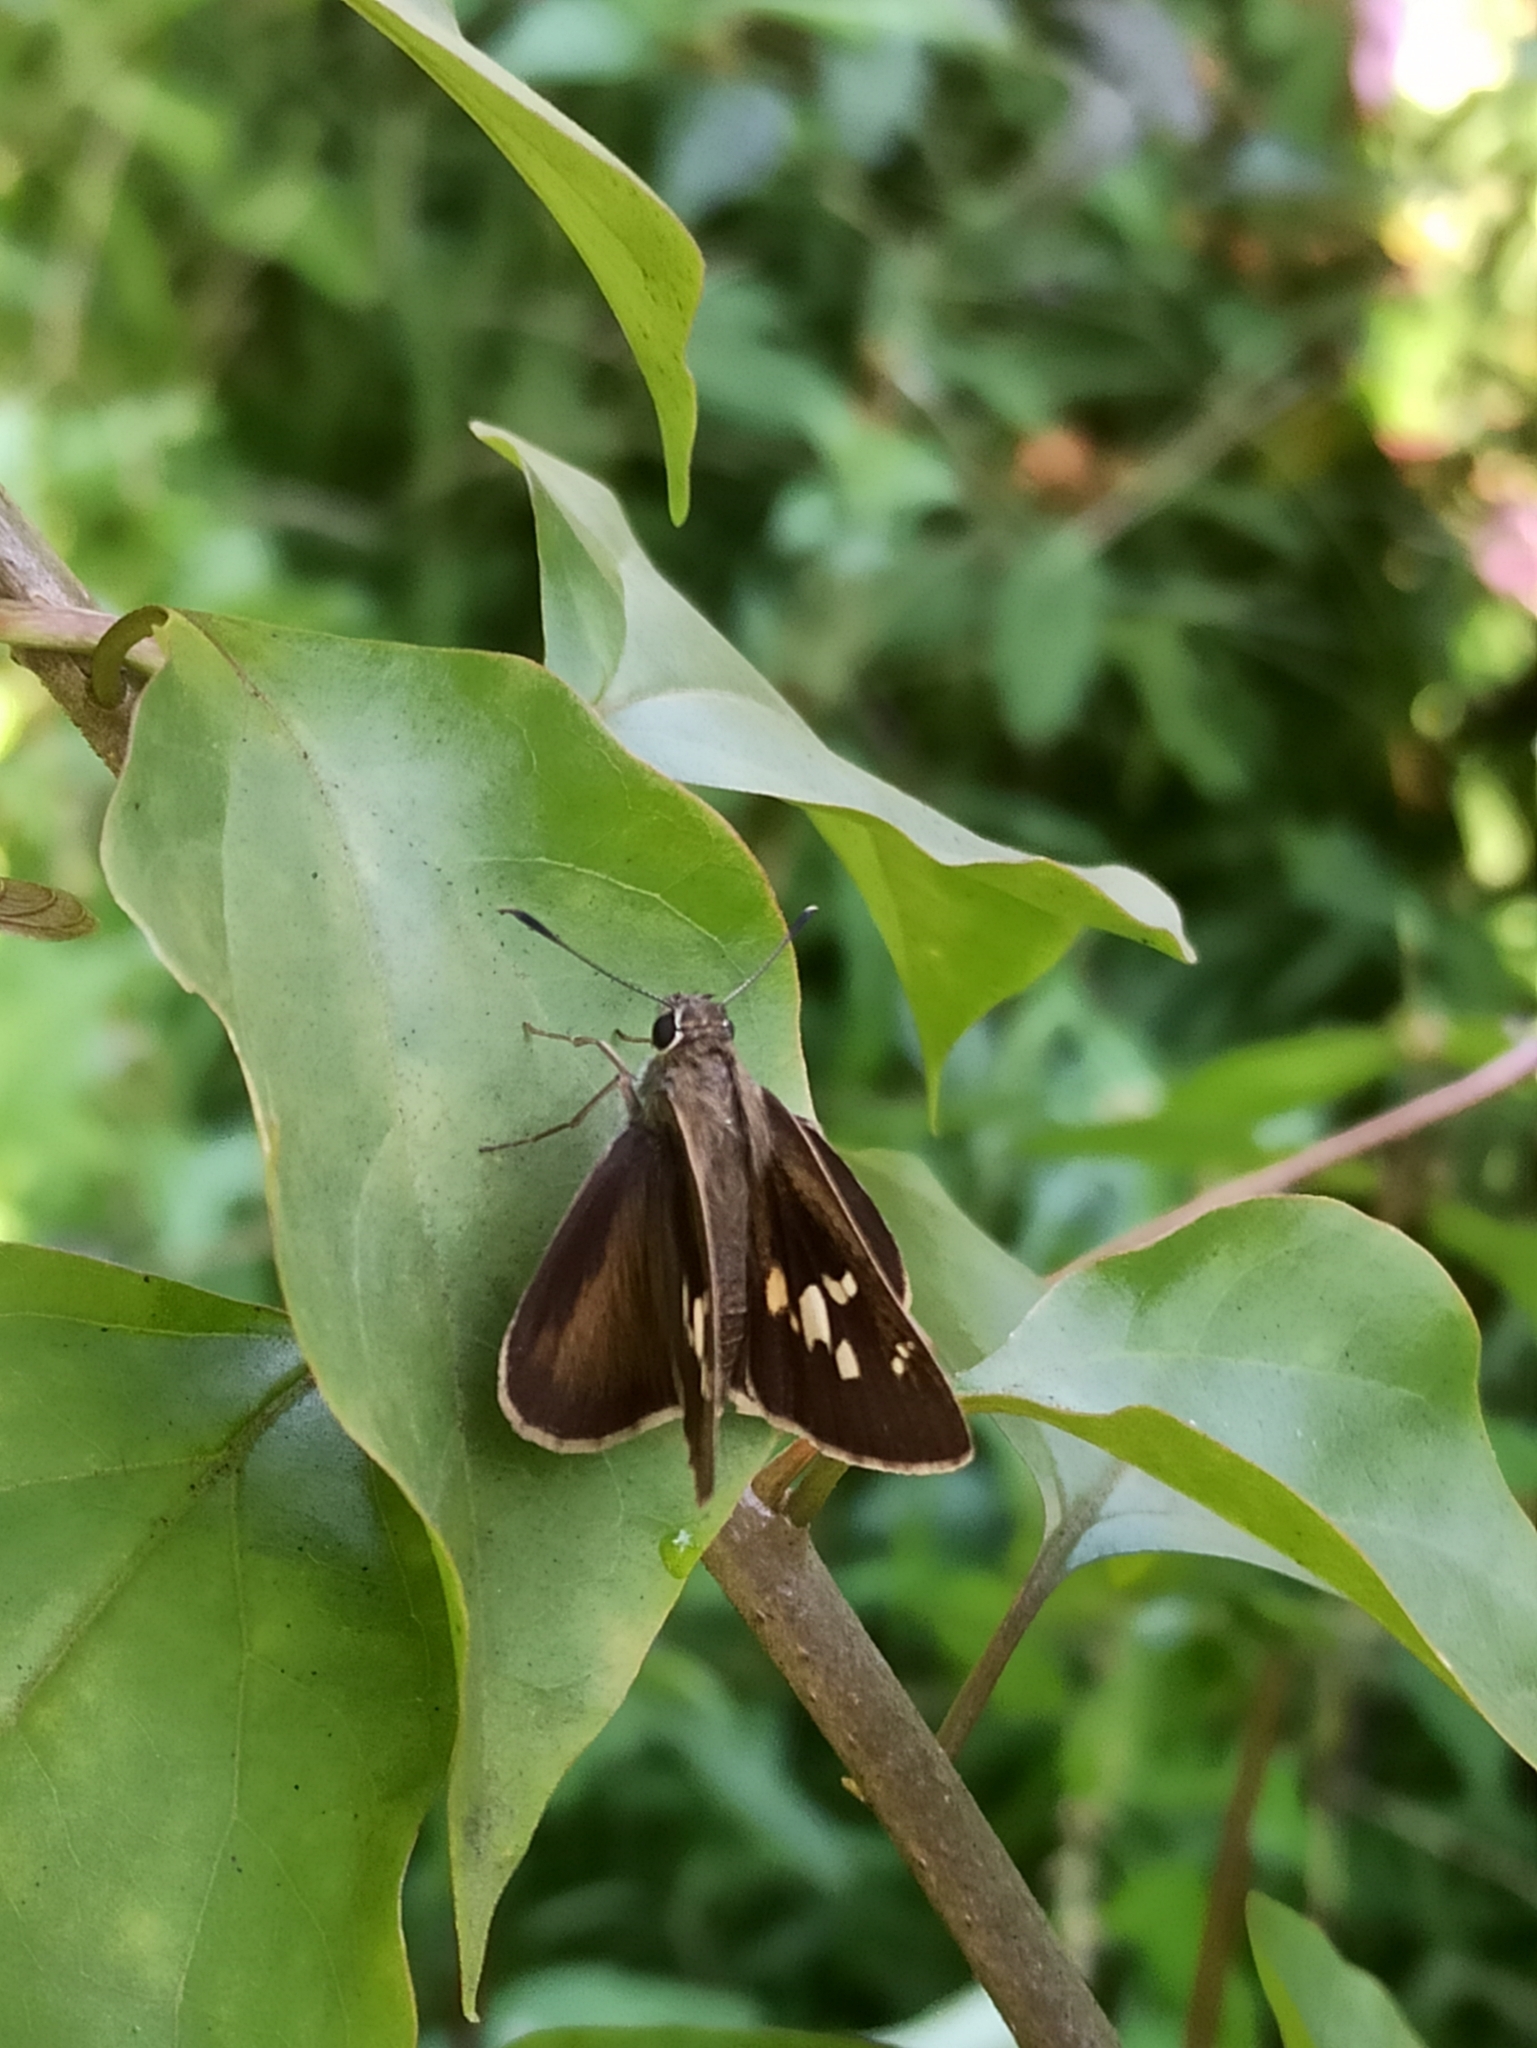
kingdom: Animalia
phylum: Arthropoda
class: Insecta
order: Lepidoptera
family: Hesperiidae
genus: Suastus
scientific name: Suastus gremius
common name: Indian palm bob
